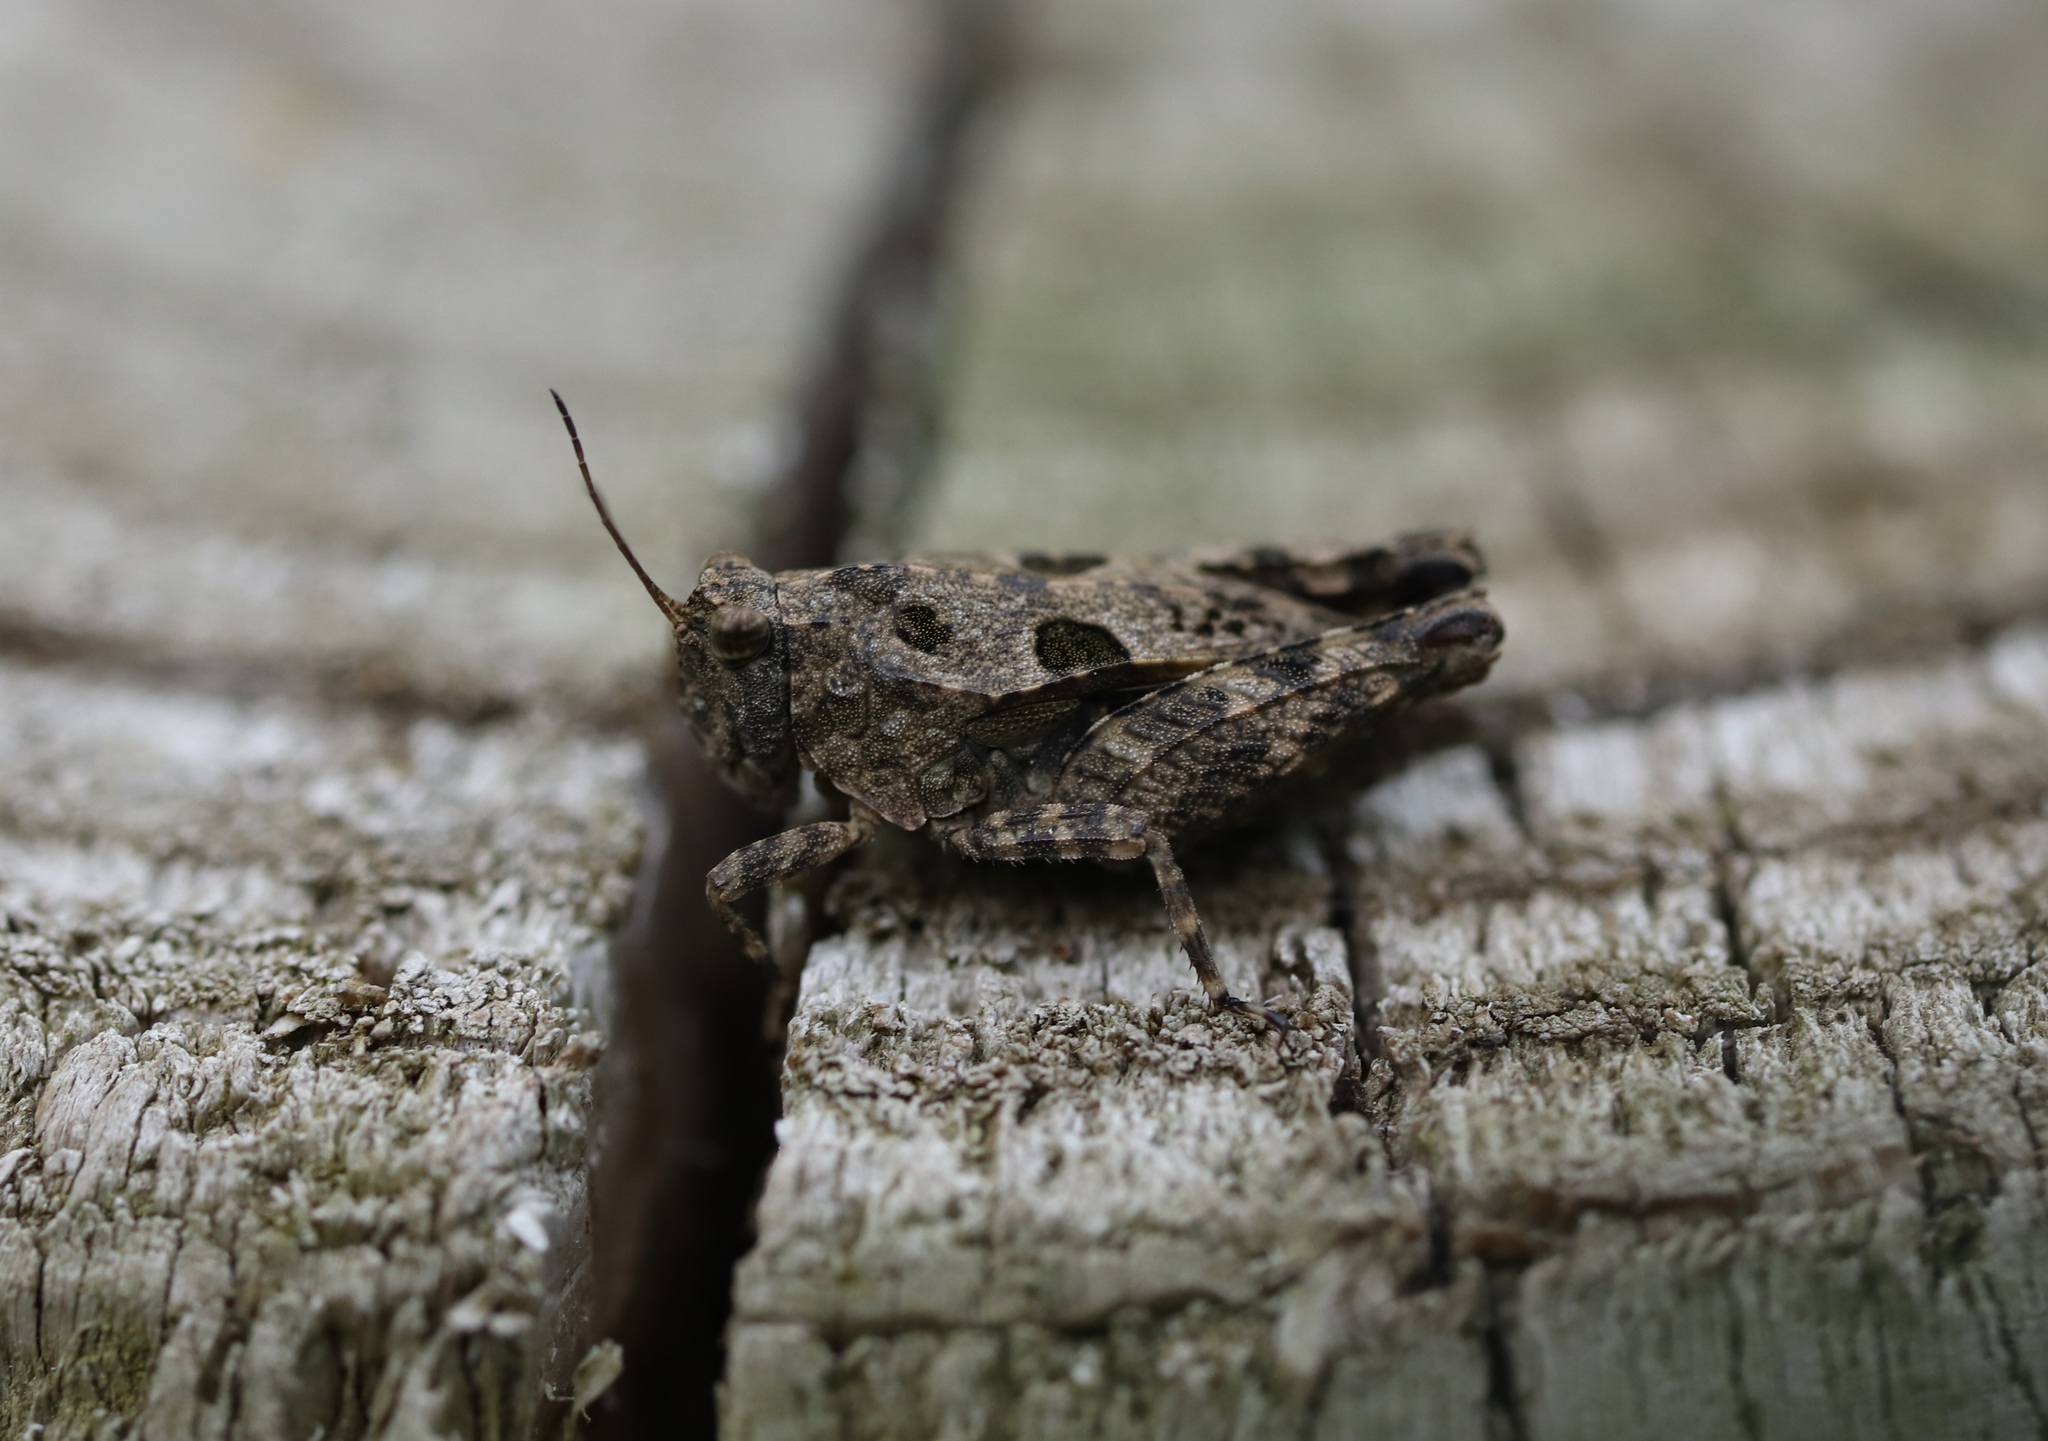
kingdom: Animalia
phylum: Arthropoda
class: Insecta
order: Orthoptera
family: Tetrigidae
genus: Tetrix
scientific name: Tetrix japonica
